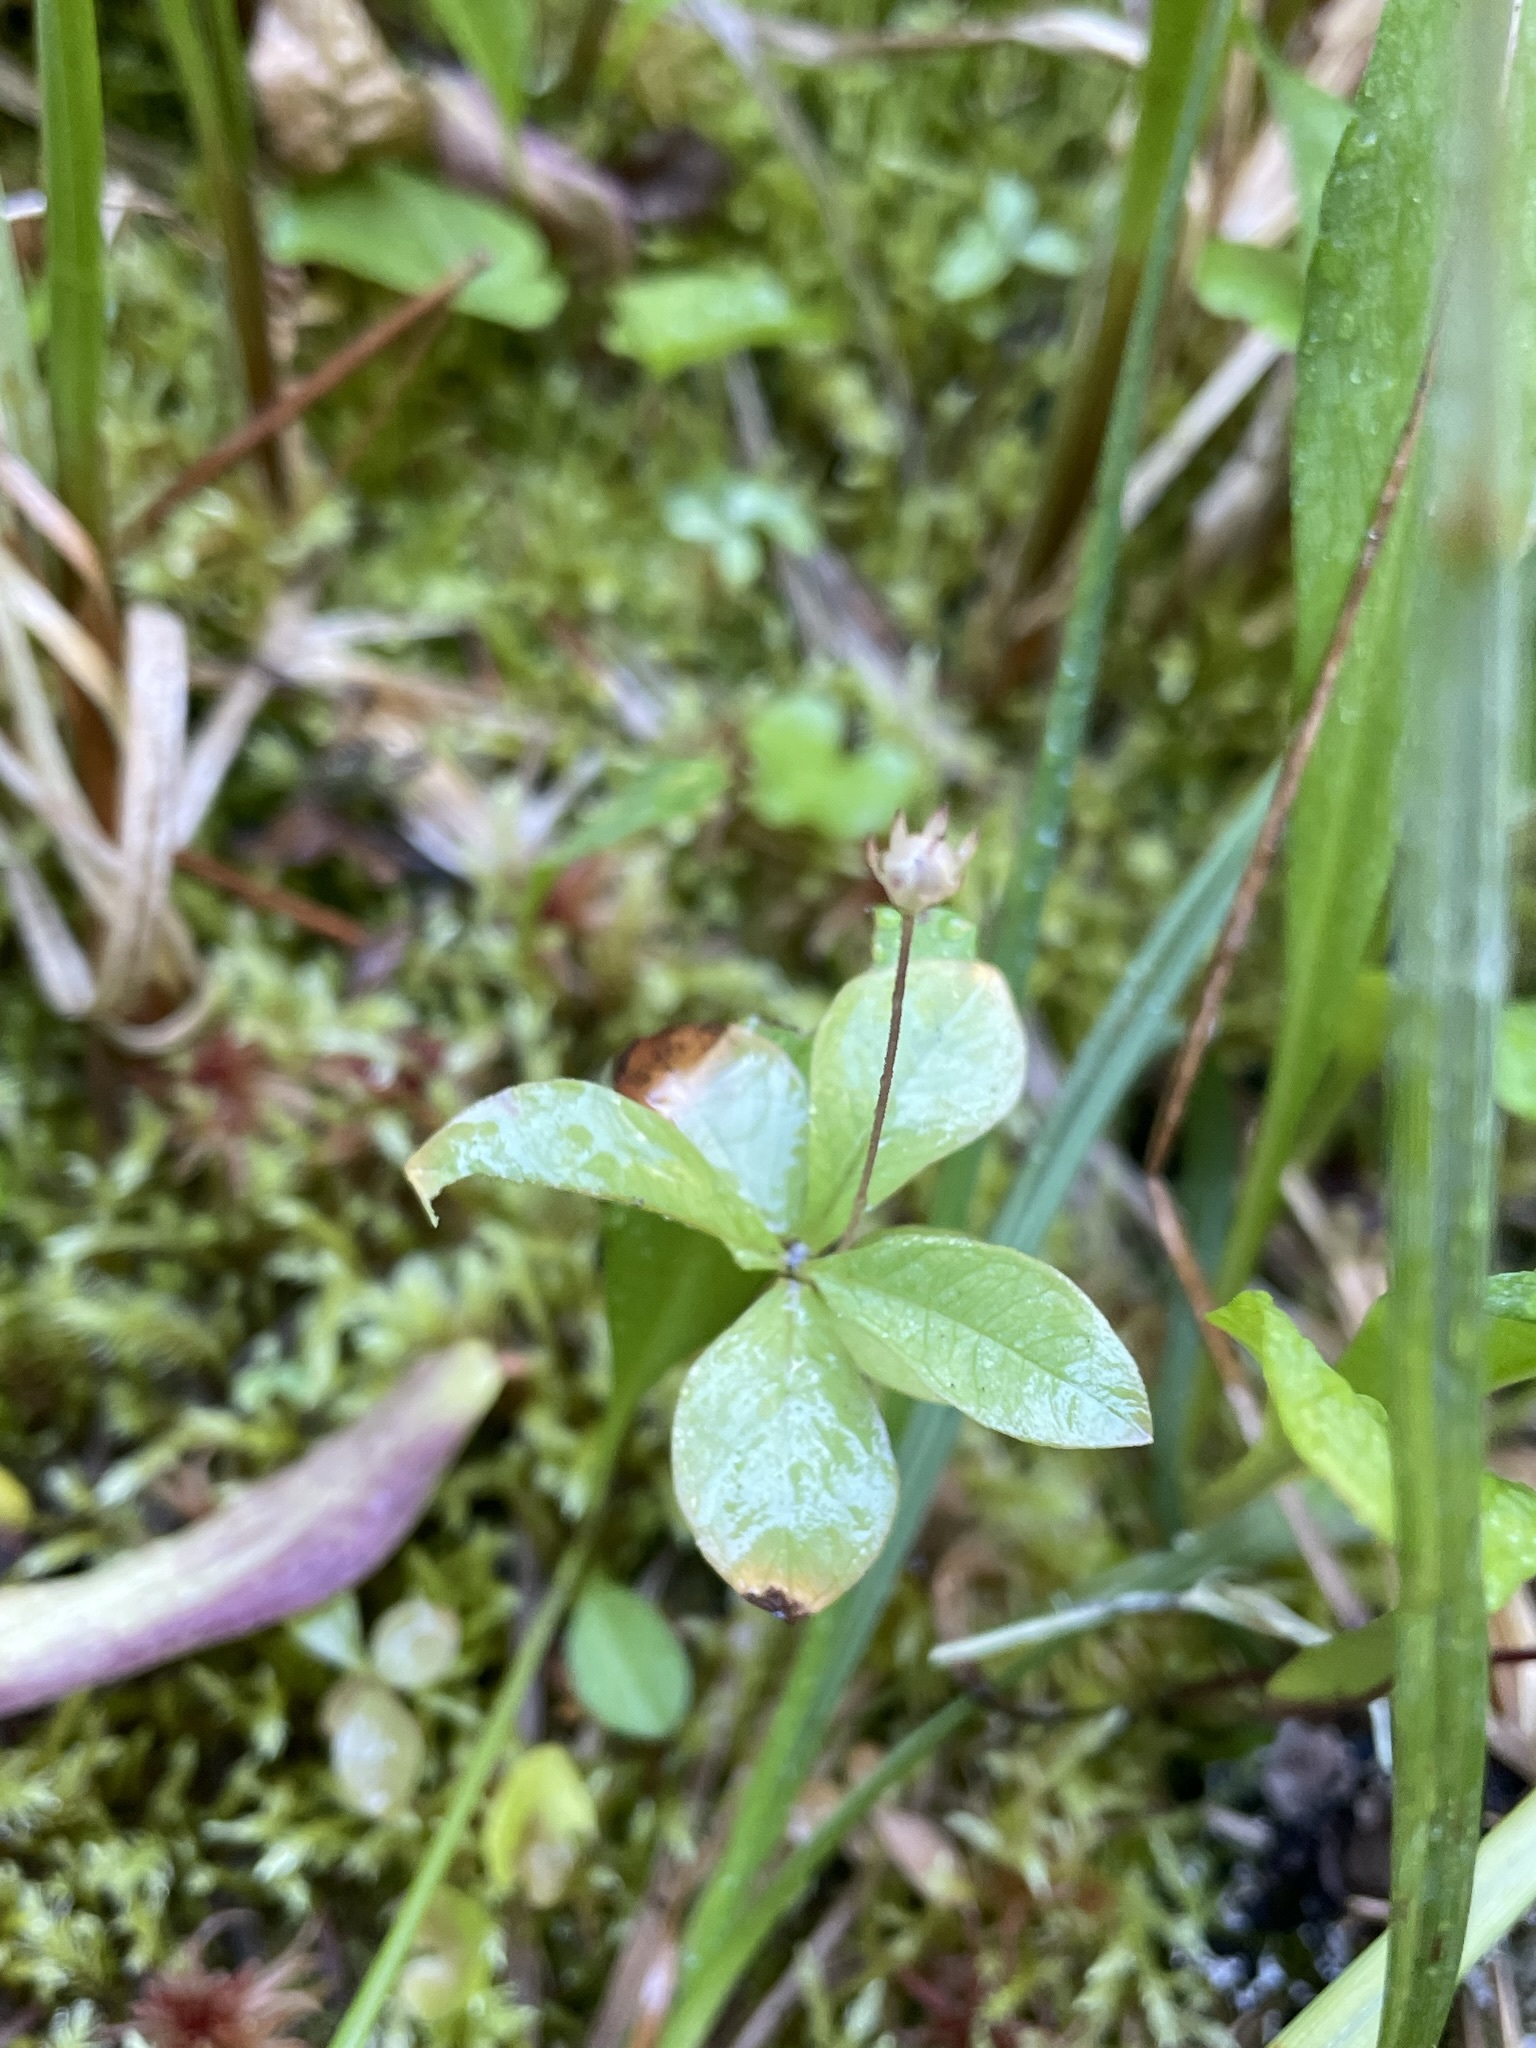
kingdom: Plantae
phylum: Tracheophyta
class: Magnoliopsida
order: Ericales
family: Primulaceae
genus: Lysimachia
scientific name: Lysimachia europaea
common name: Arctic starflower
